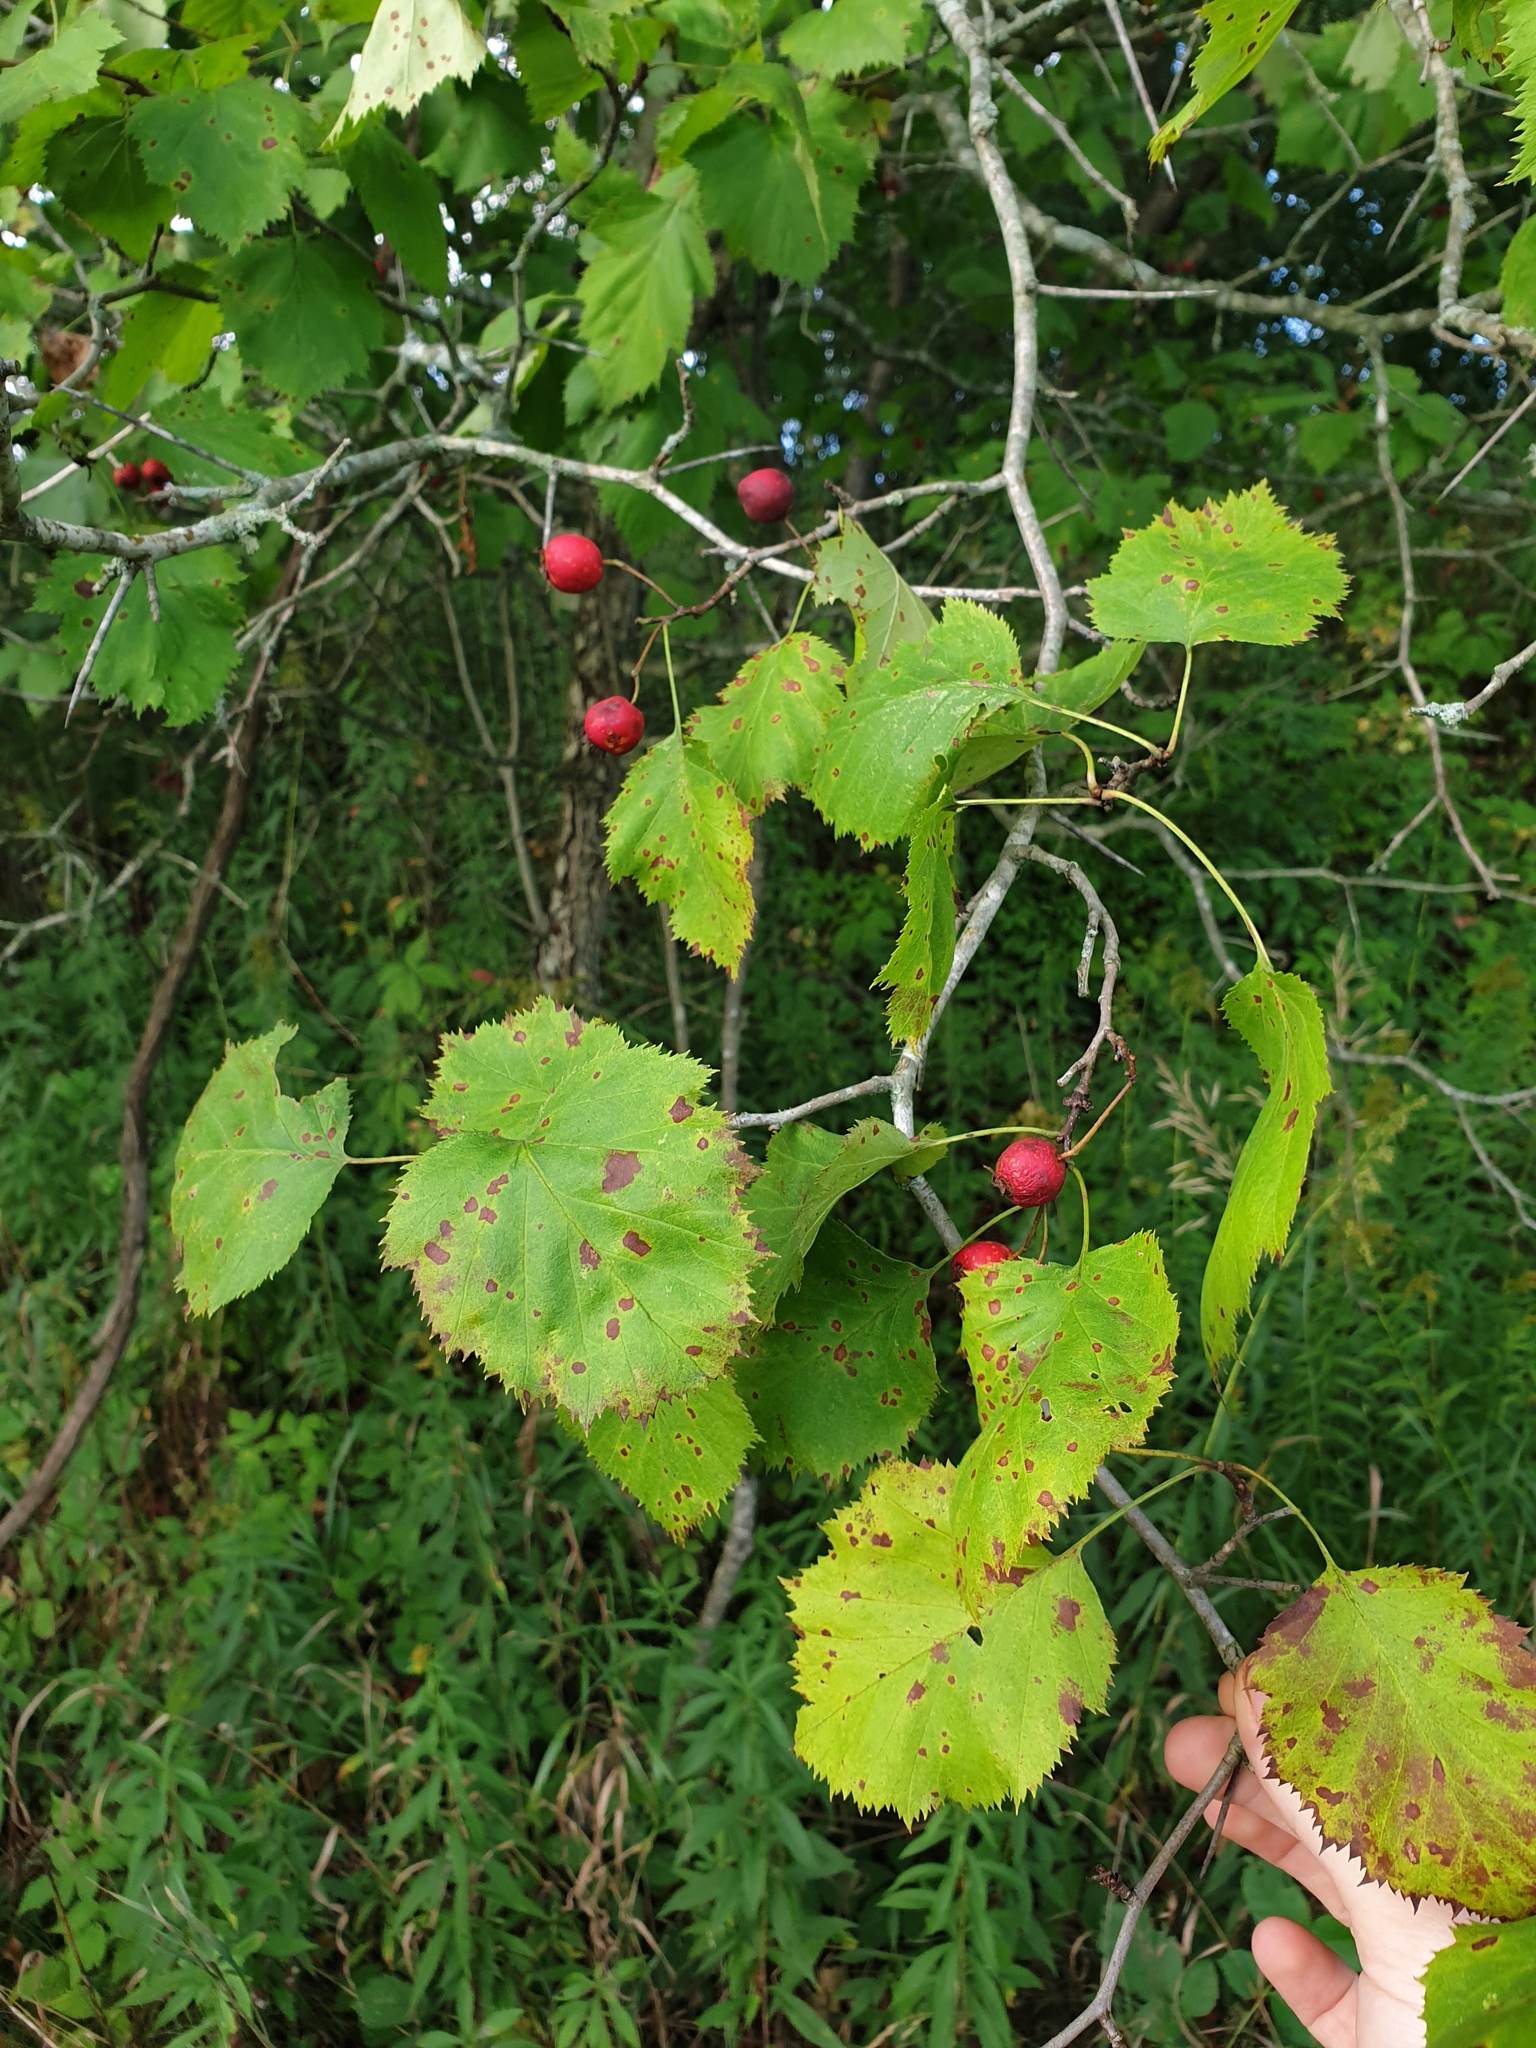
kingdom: Plantae
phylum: Tracheophyta
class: Magnoliopsida
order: Rosales
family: Rosaceae
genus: Crataegus
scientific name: Crataegus coccinioides
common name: Large-flowered cockspurthorn
